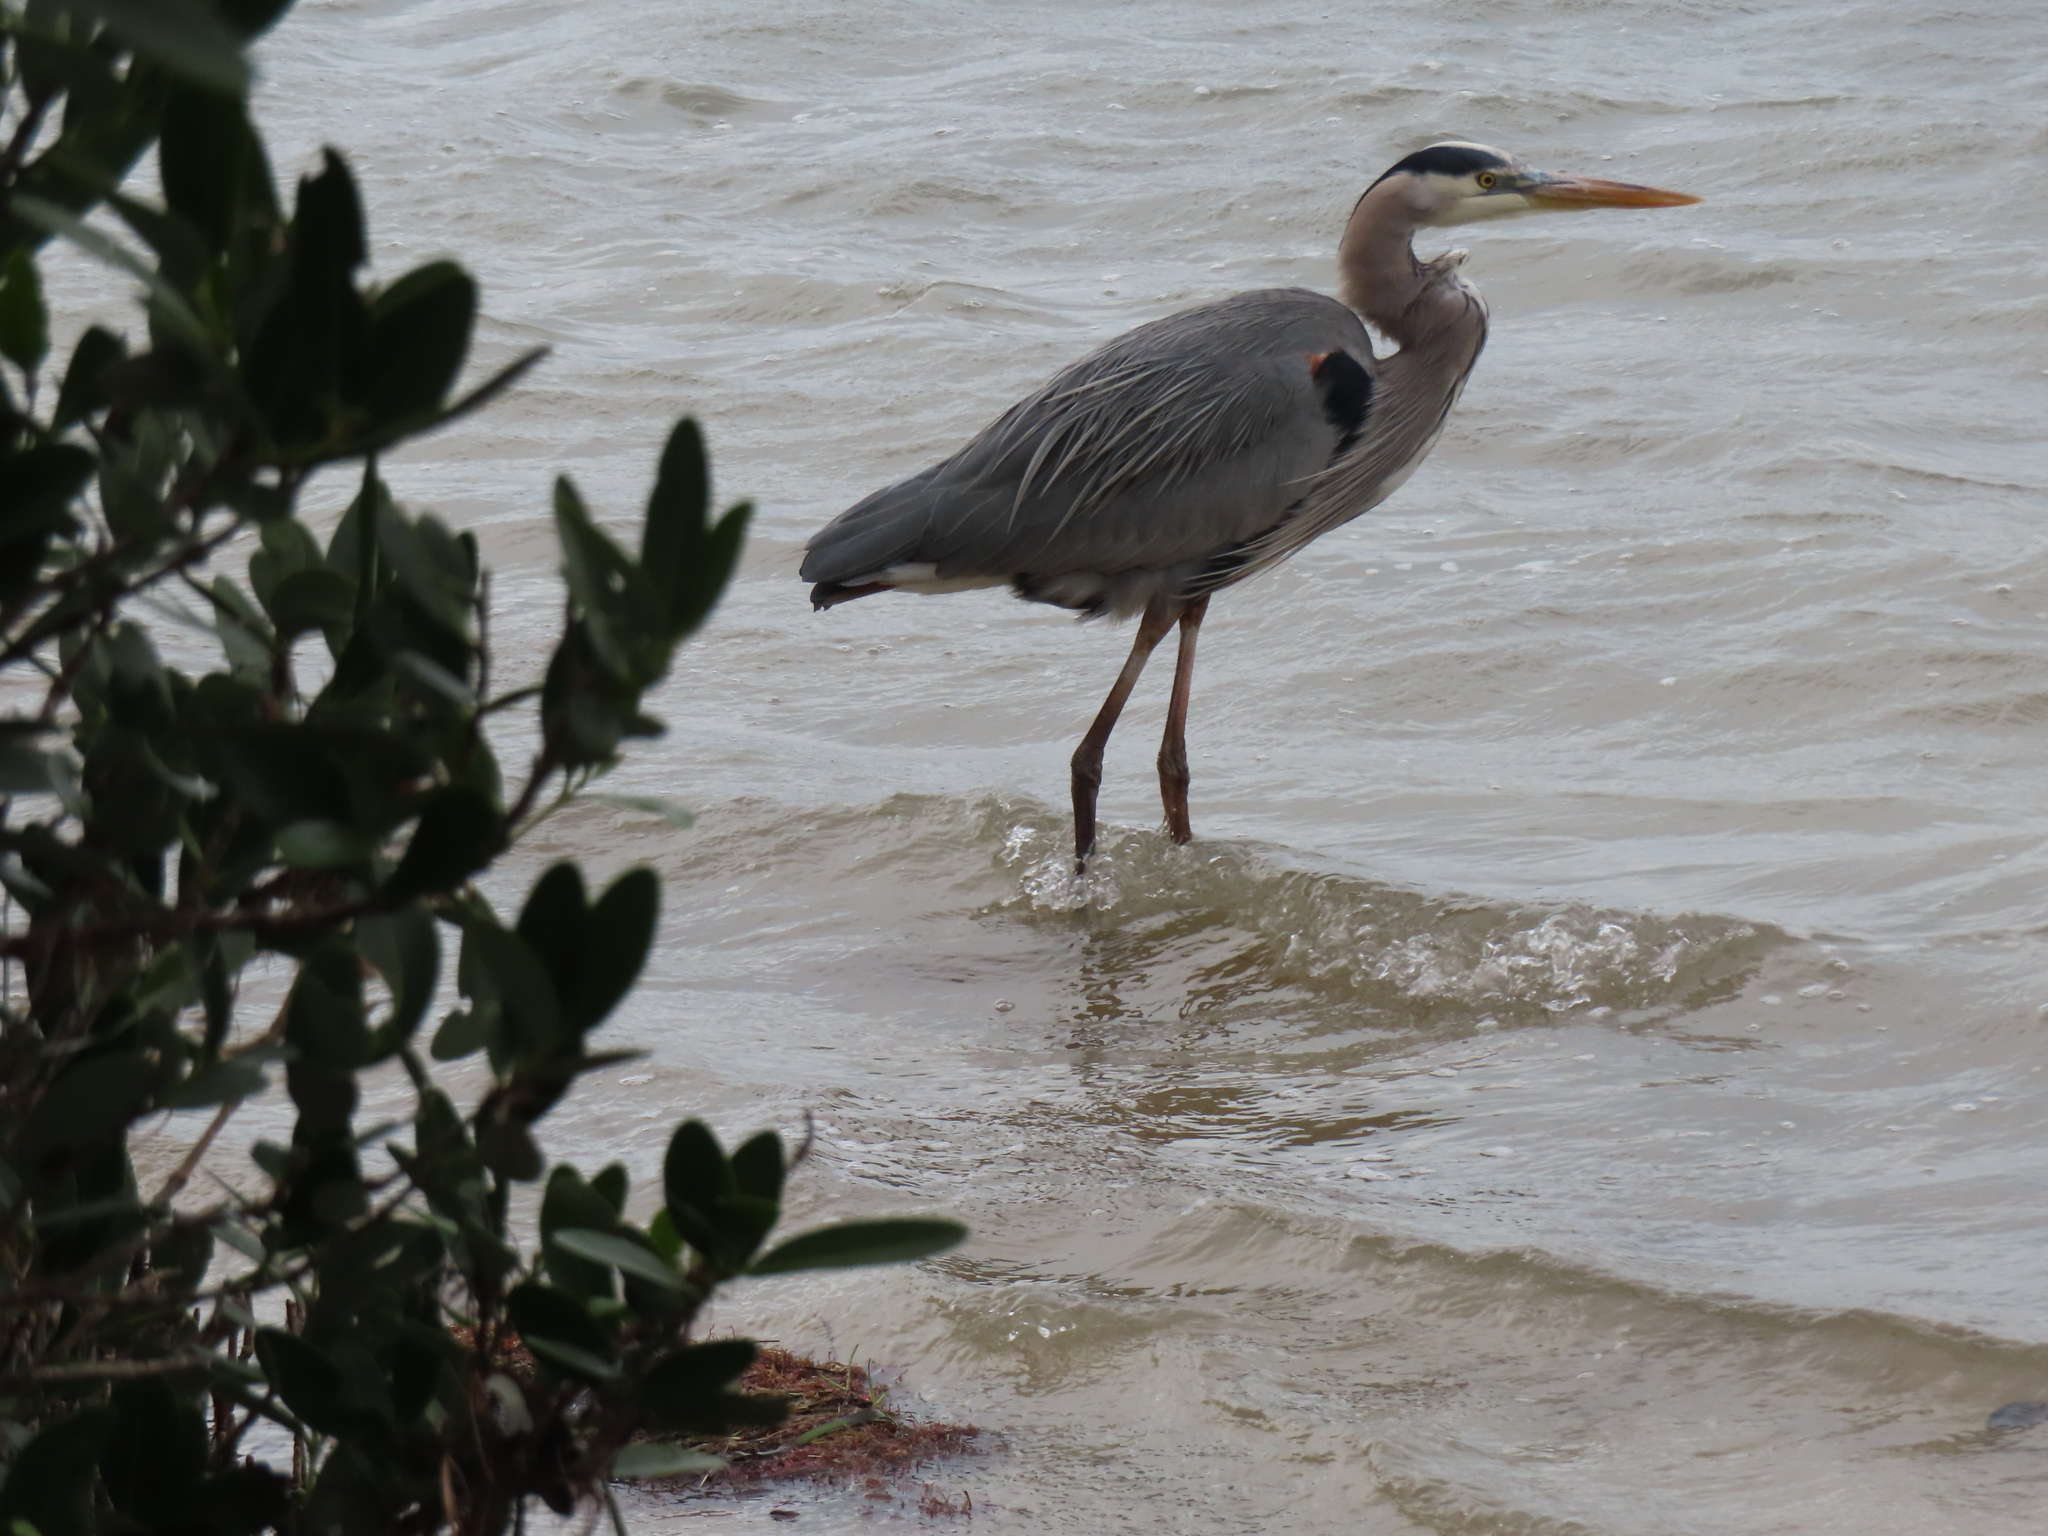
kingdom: Animalia
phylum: Chordata
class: Aves
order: Pelecaniformes
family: Ardeidae
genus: Ardea
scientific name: Ardea herodias
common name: Great blue heron
